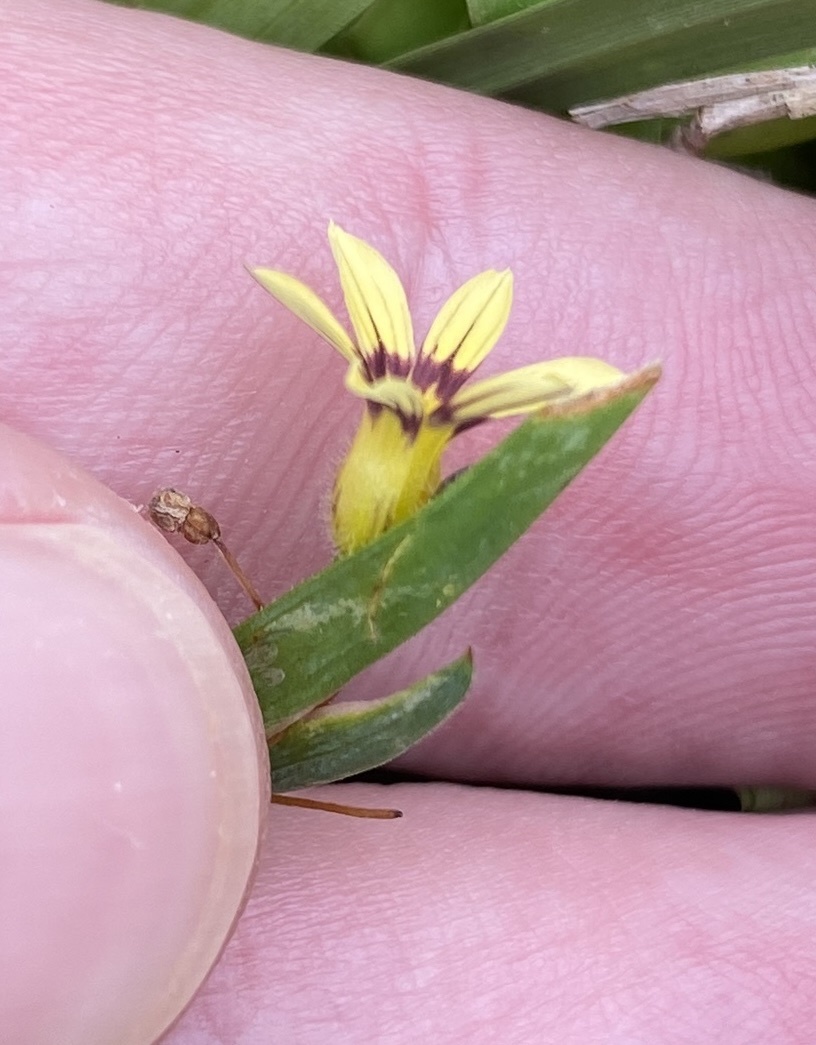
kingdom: Plantae
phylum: Tracheophyta
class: Liliopsida
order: Asparagales
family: Iridaceae
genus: Sisyrinchium
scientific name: Sisyrinchium micranthum
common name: Bermuda pigroot
